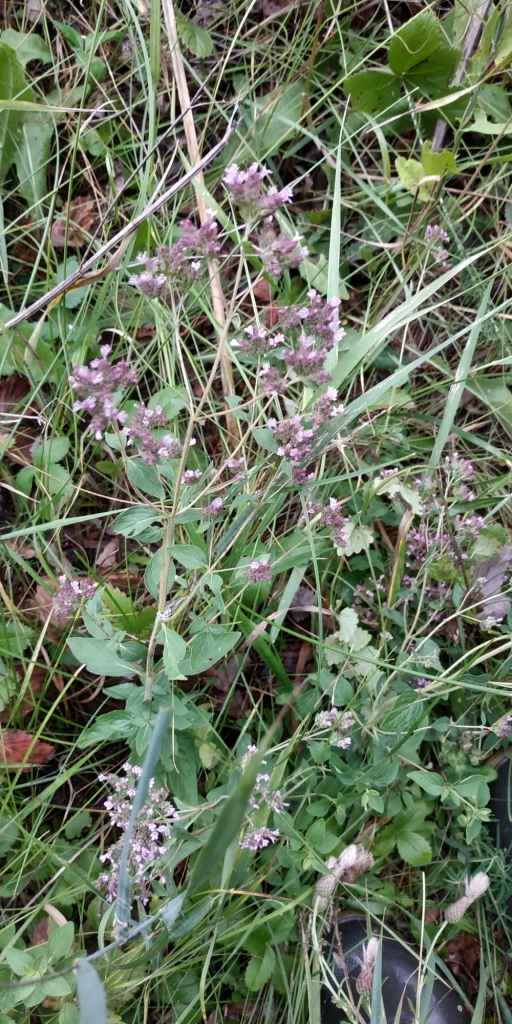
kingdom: Plantae
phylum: Tracheophyta
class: Magnoliopsida
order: Lamiales
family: Lamiaceae
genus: Origanum
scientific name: Origanum vulgare
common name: Wild marjoram
